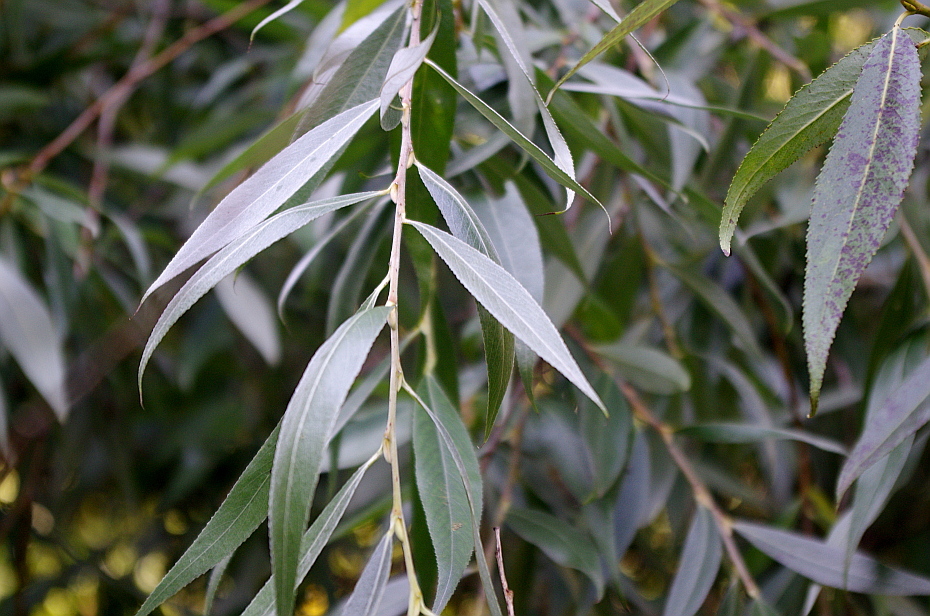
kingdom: Plantae
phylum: Tracheophyta
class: Magnoliopsida
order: Malpighiales
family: Salicaceae
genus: Salix
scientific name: Salix alba
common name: White willow
